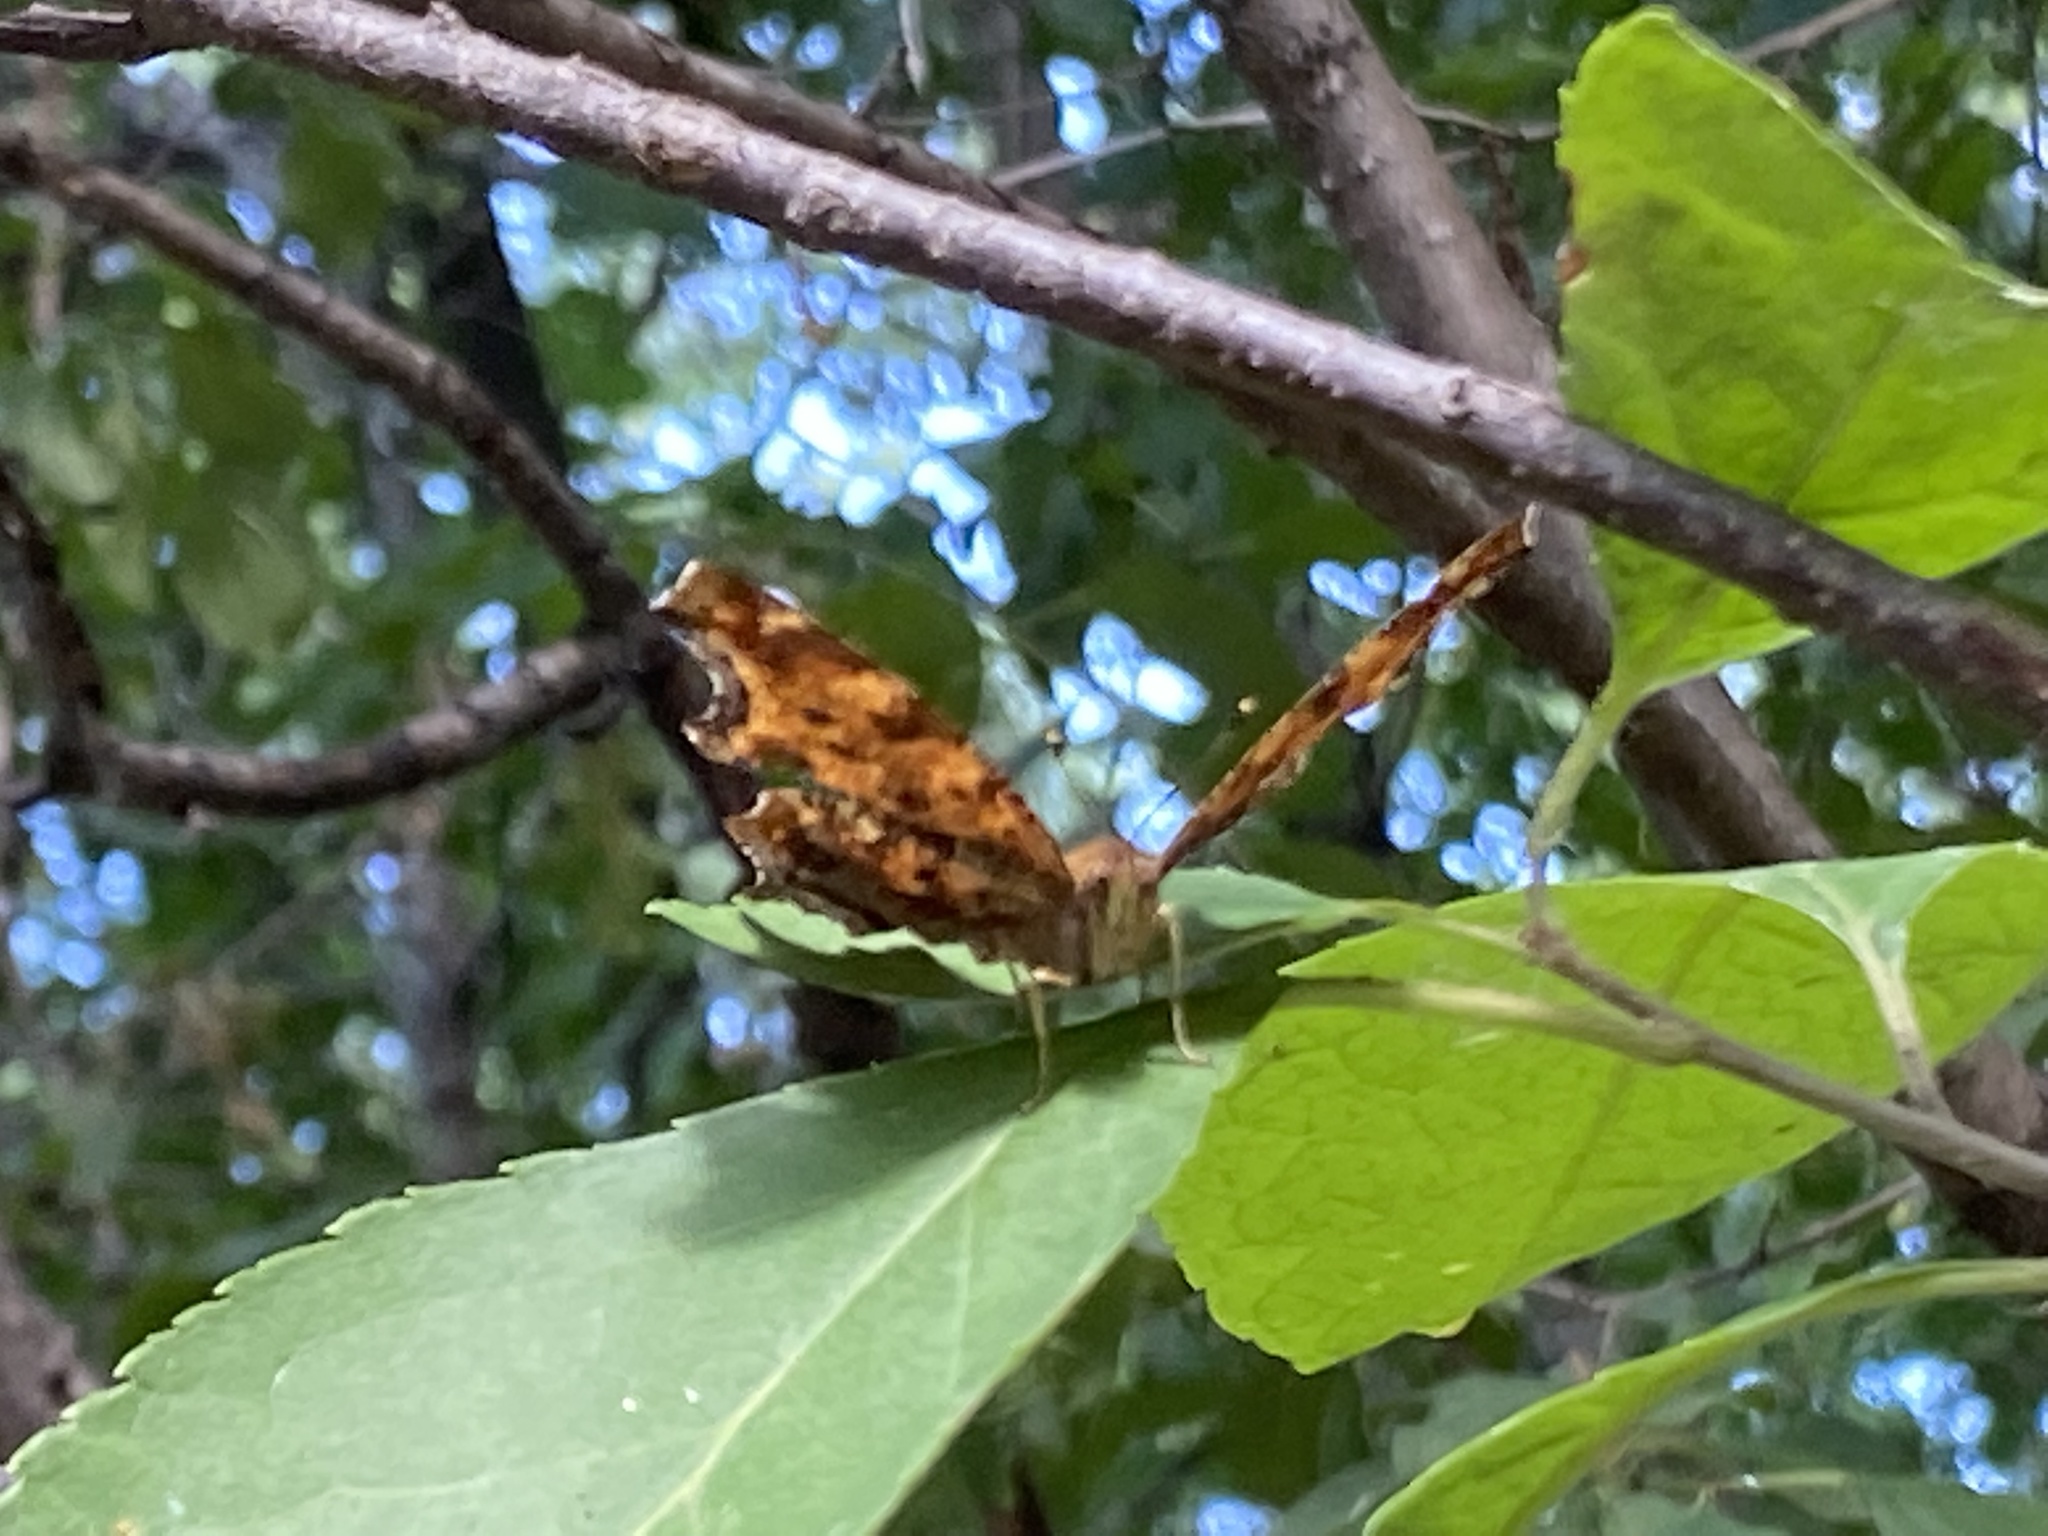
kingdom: Animalia
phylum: Arthropoda
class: Insecta
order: Lepidoptera
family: Nymphalidae
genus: Polygonia
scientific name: Polygonia comma
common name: Eastern comma
